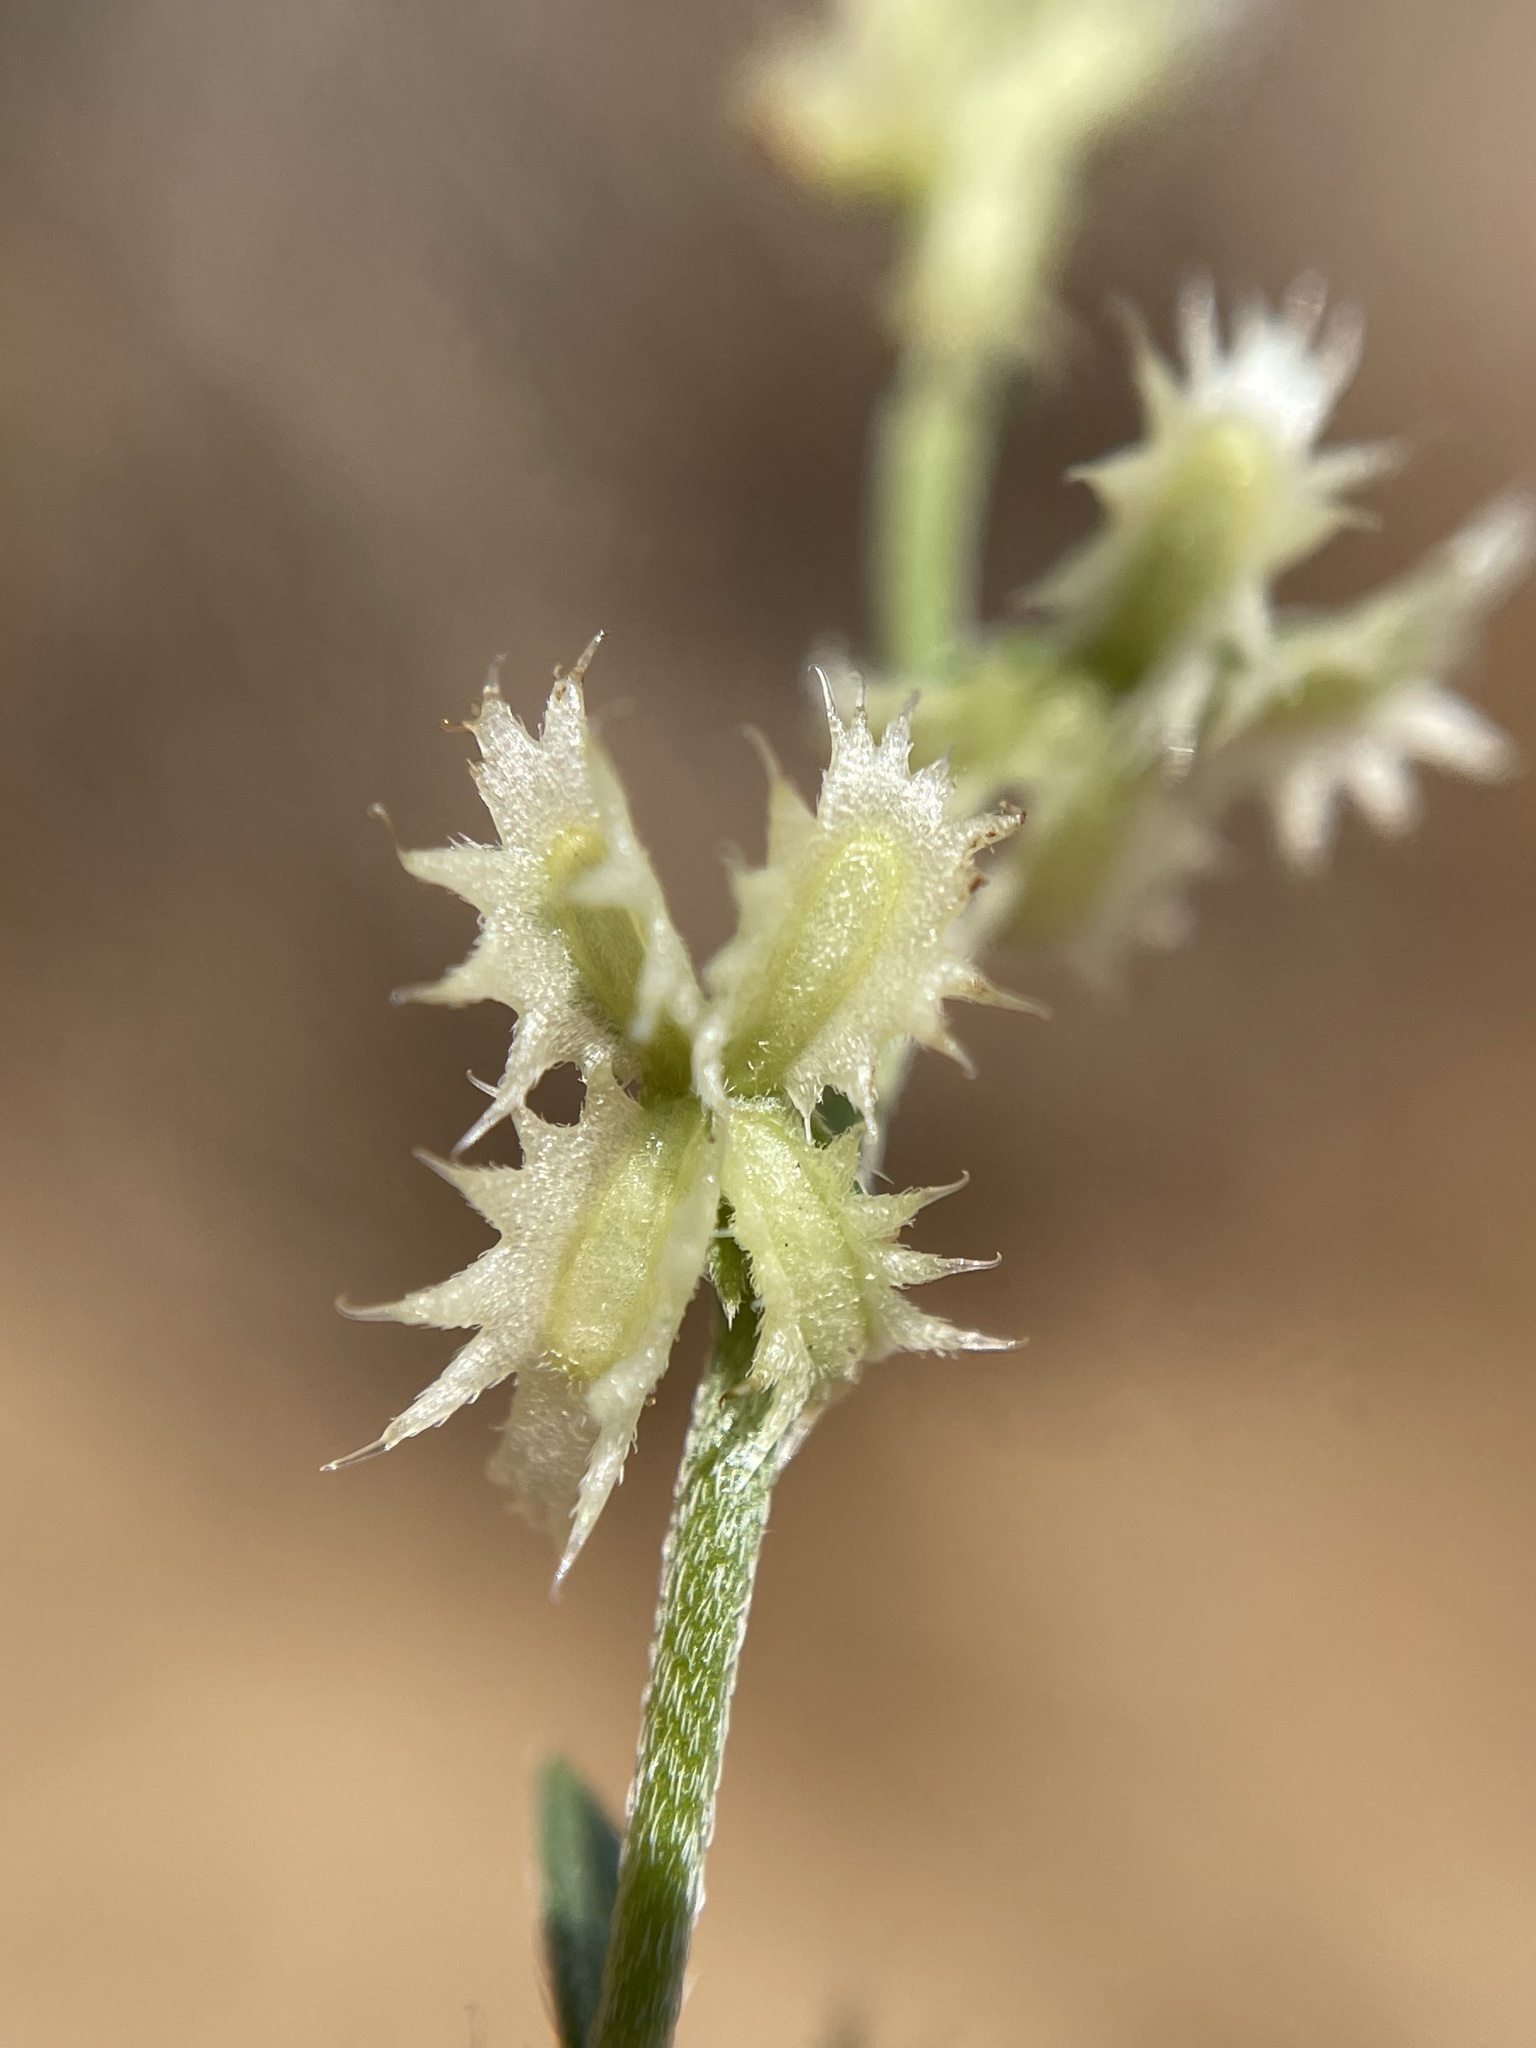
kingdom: Plantae
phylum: Tracheophyta
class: Magnoliopsida
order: Boraginales
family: Boraginaceae
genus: Pectocarya
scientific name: Pectocarya platycarpa
